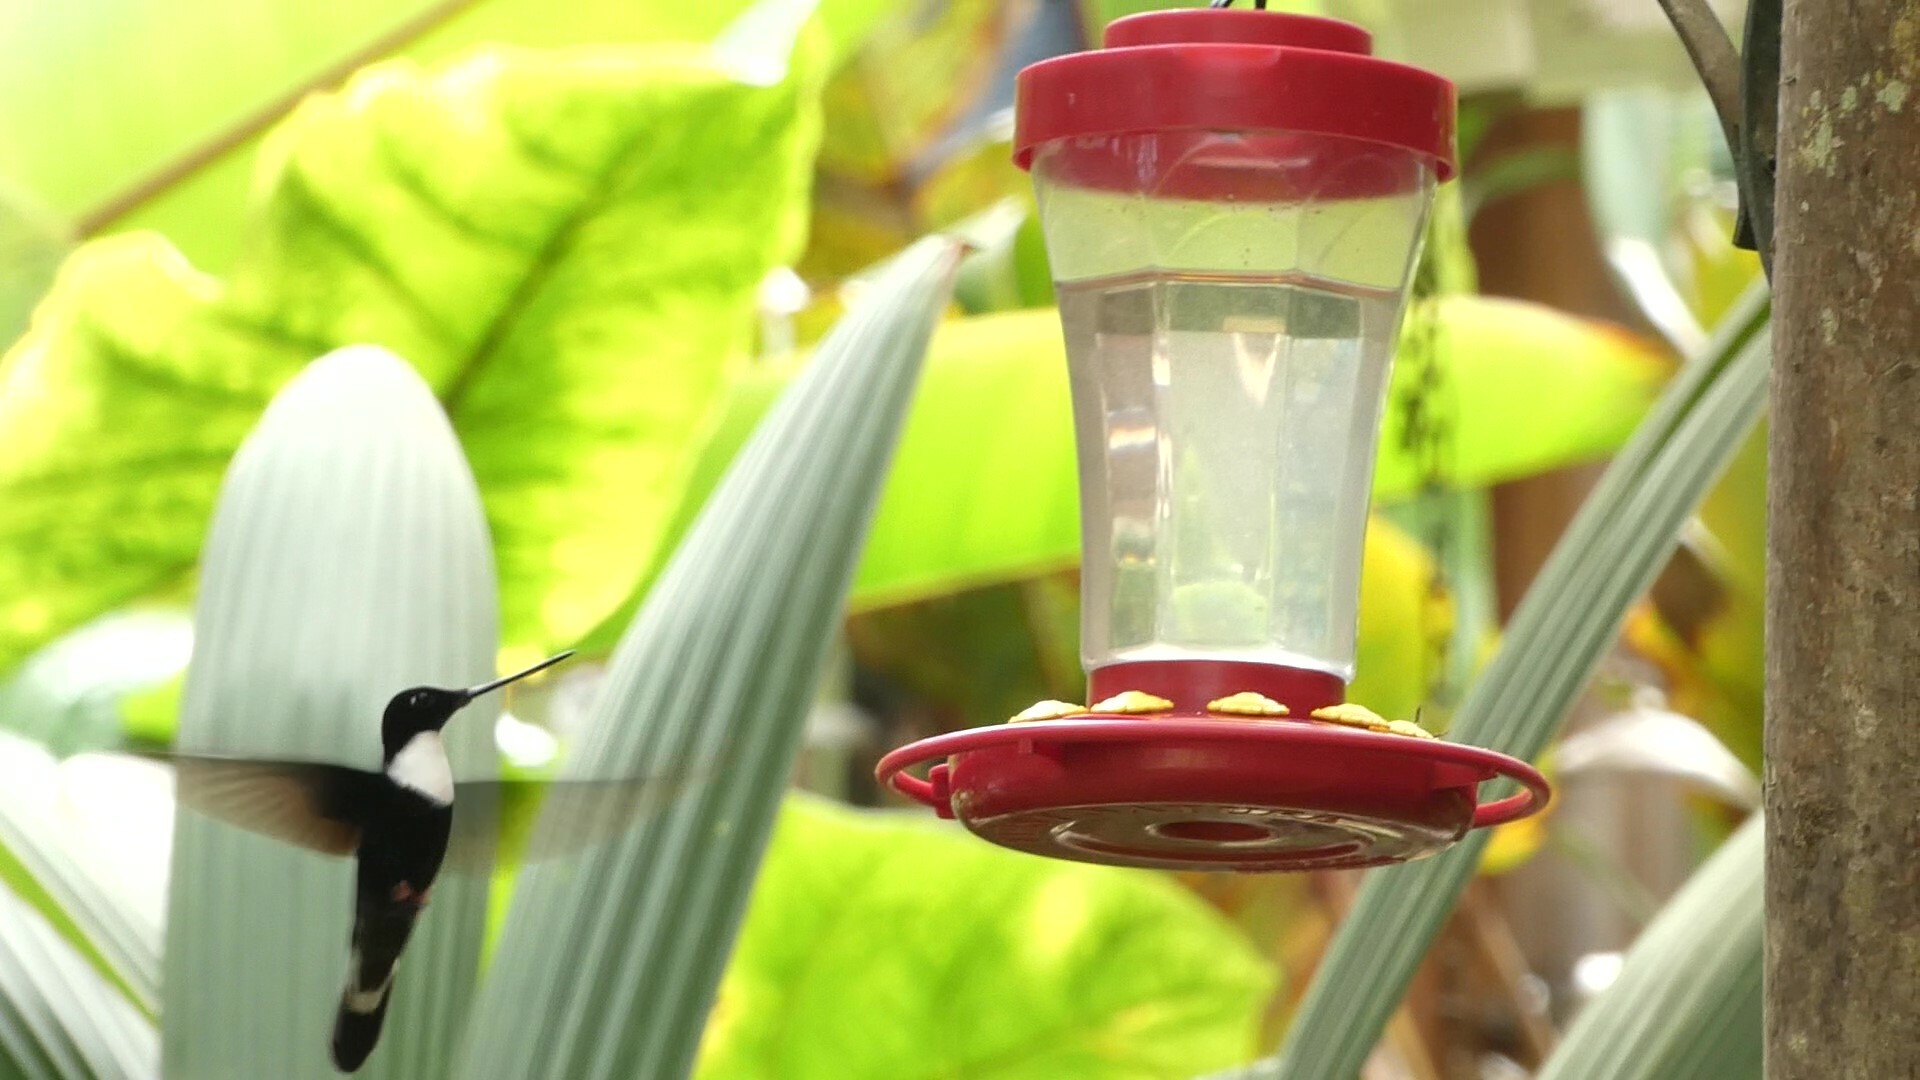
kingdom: Animalia
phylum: Chordata
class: Aves
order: Apodiformes
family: Trochilidae
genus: Coeligena
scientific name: Coeligena torquata
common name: Collared inca
